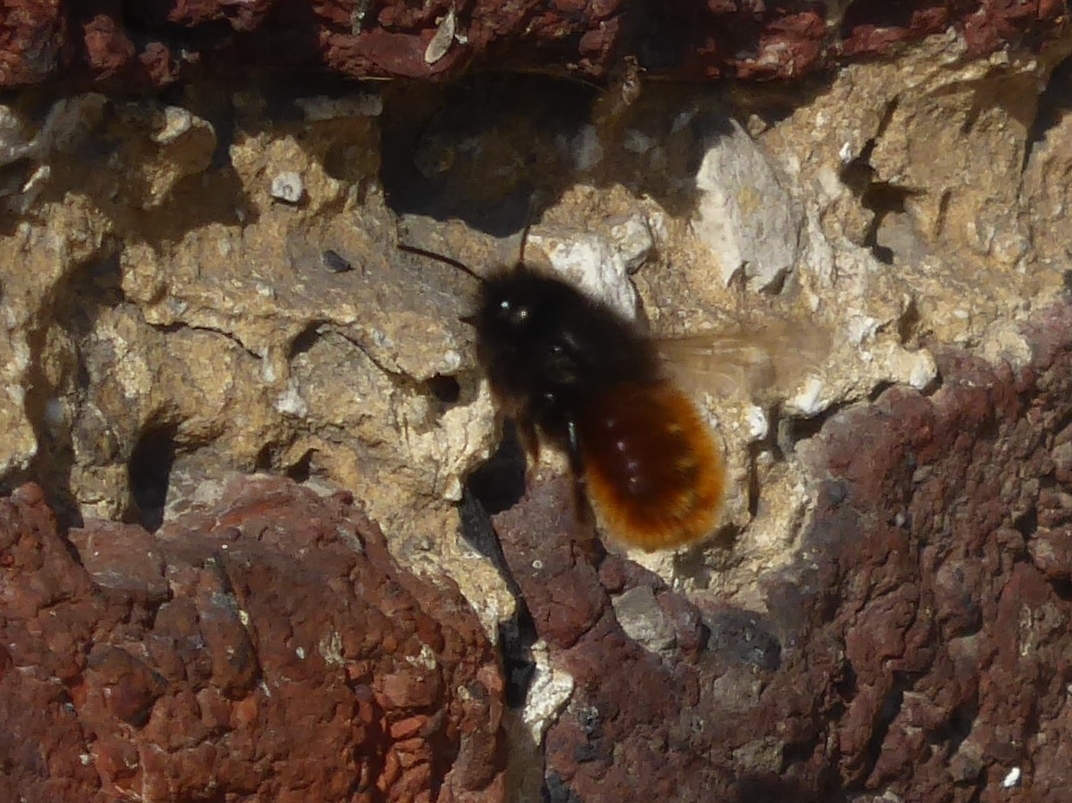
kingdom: Animalia
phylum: Arthropoda
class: Insecta
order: Hymenoptera
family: Megachilidae
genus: Osmia
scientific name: Osmia cornuta
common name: Mason bee
